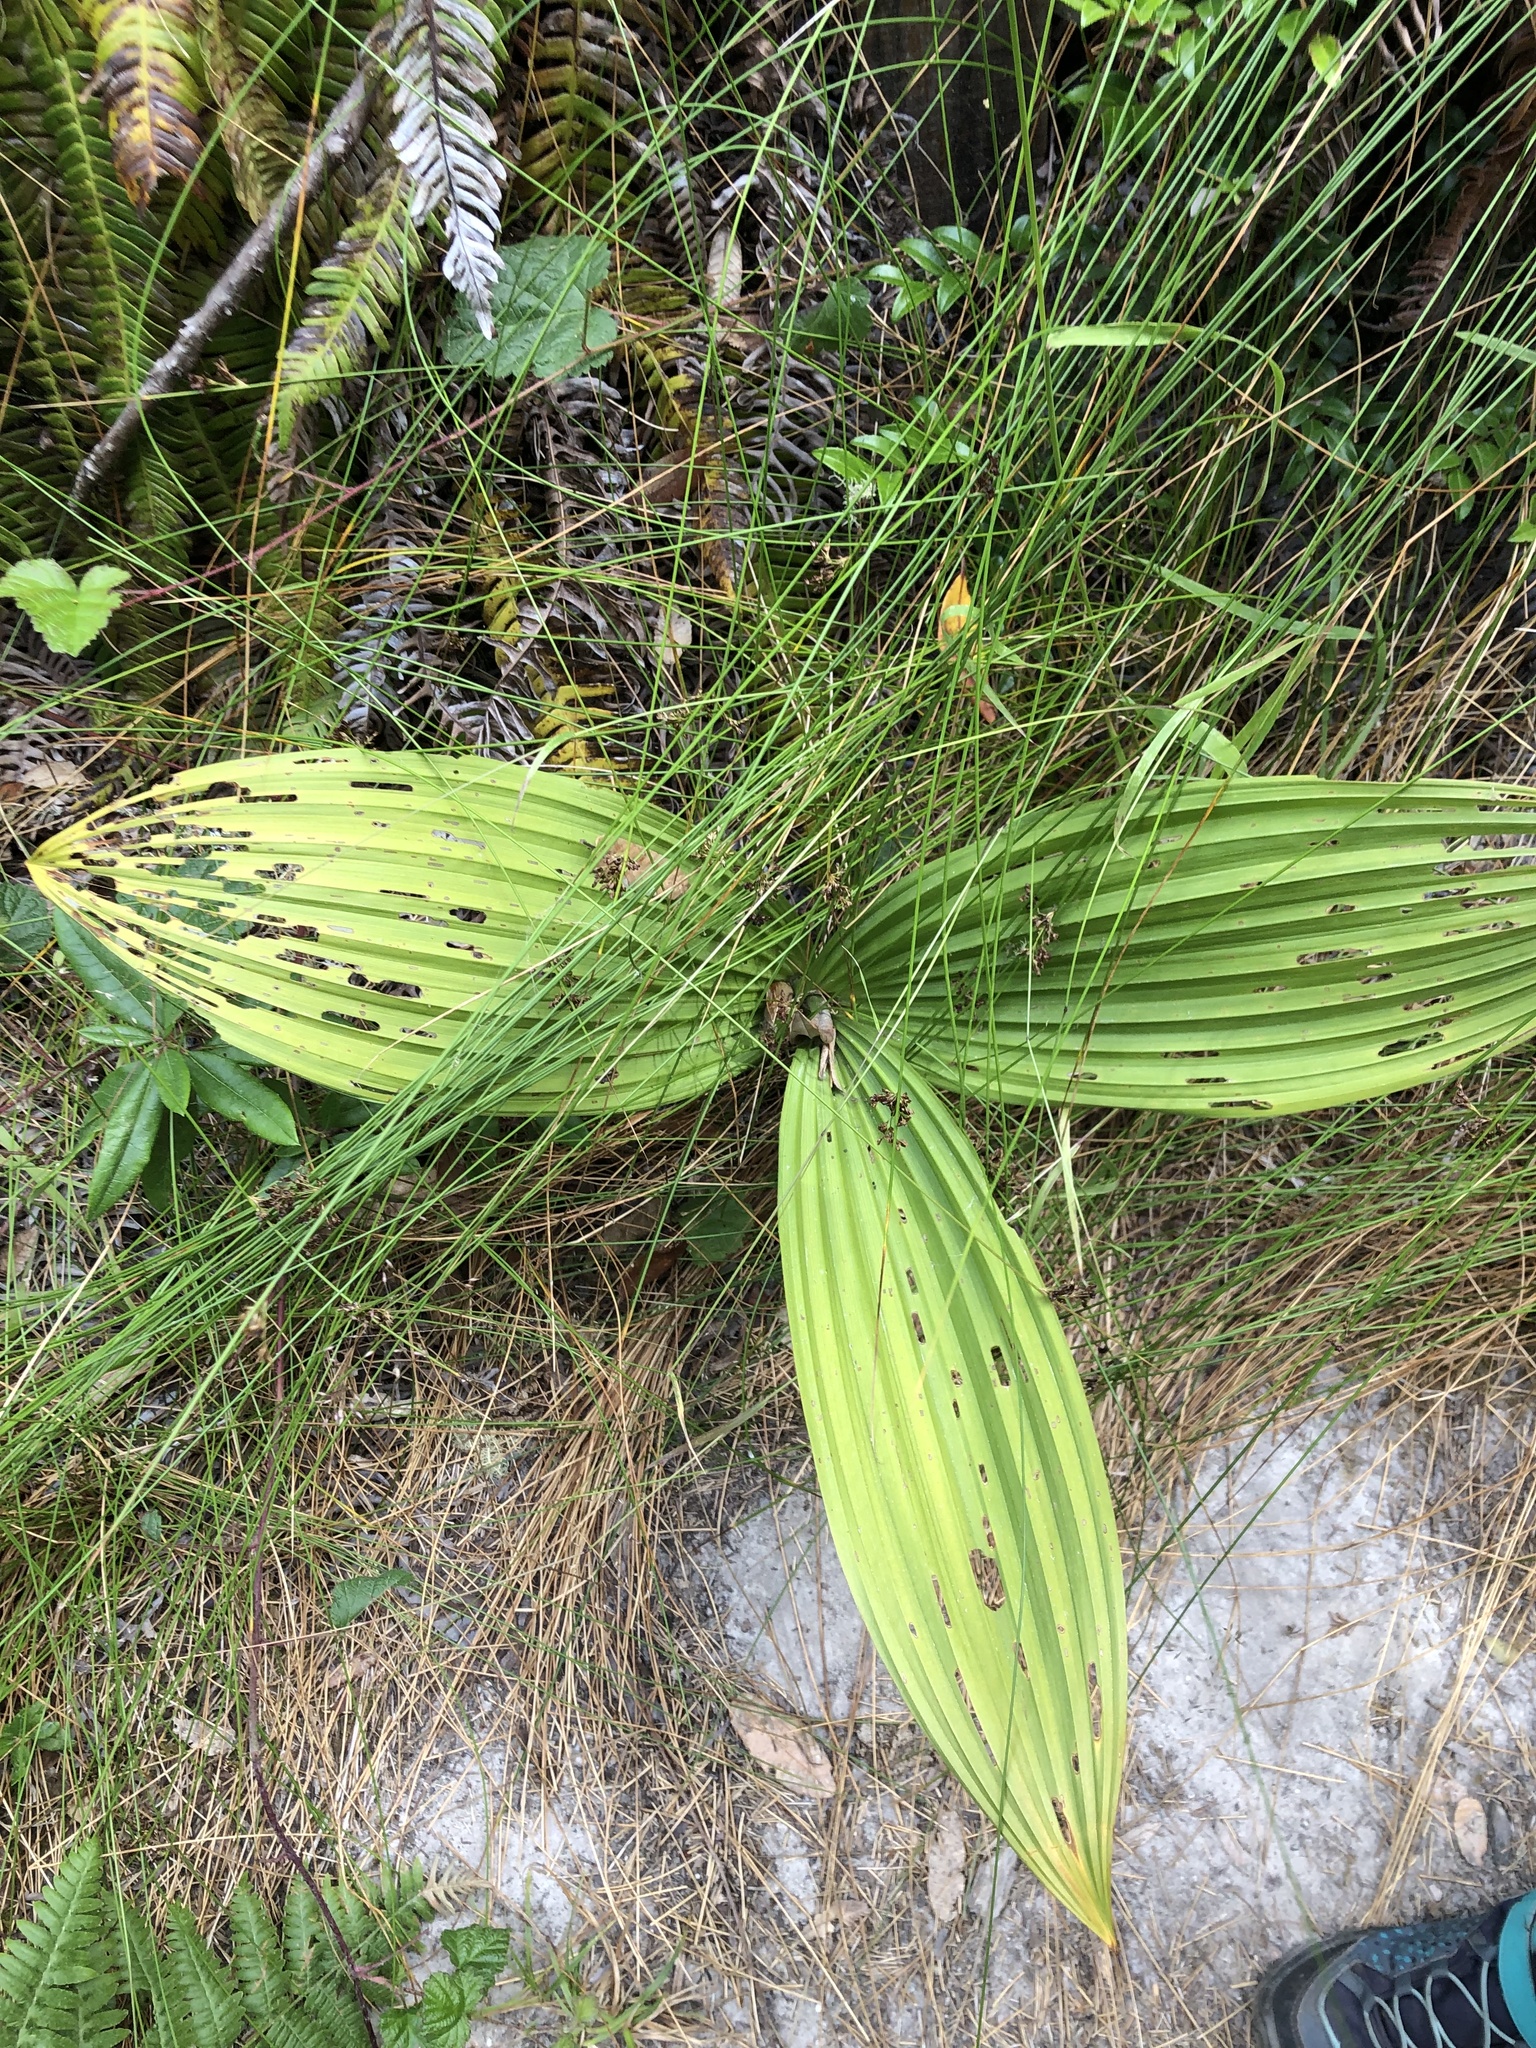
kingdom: Plantae
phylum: Tracheophyta
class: Liliopsida
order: Liliales
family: Melanthiaceae
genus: Veratrum
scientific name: Veratrum fimbriatum
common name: Fringe false hellobore
